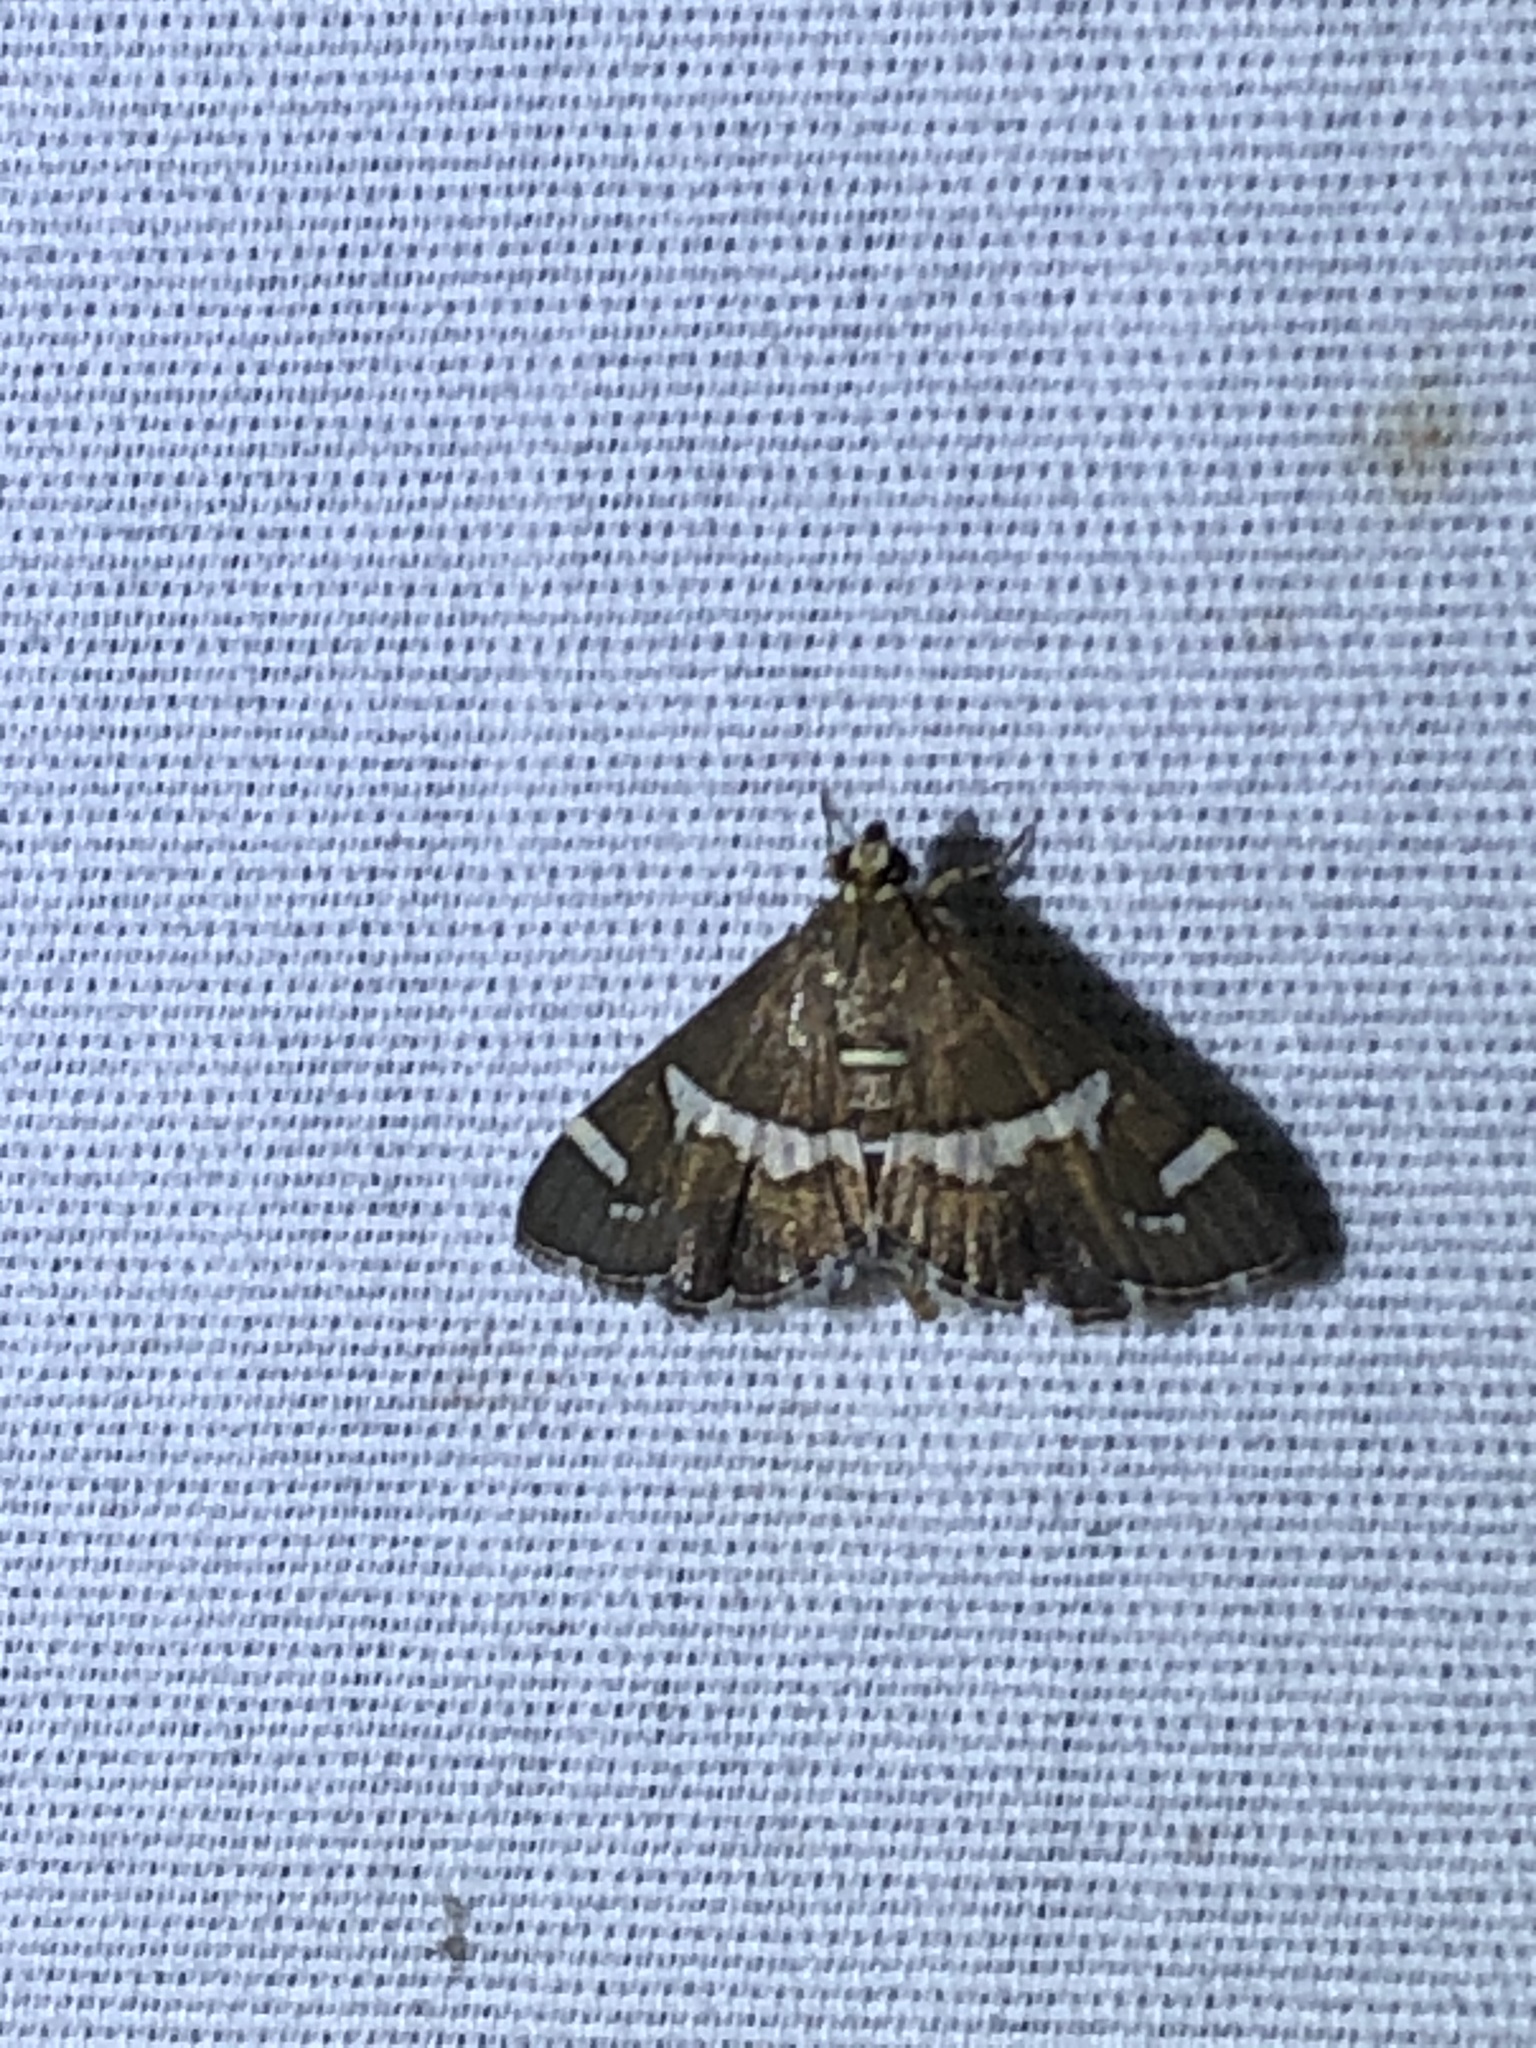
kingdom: Animalia
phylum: Arthropoda
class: Insecta
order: Lepidoptera
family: Crambidae
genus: Spoladea
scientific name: Spoladea recurvalis
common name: Beet webworm moth
